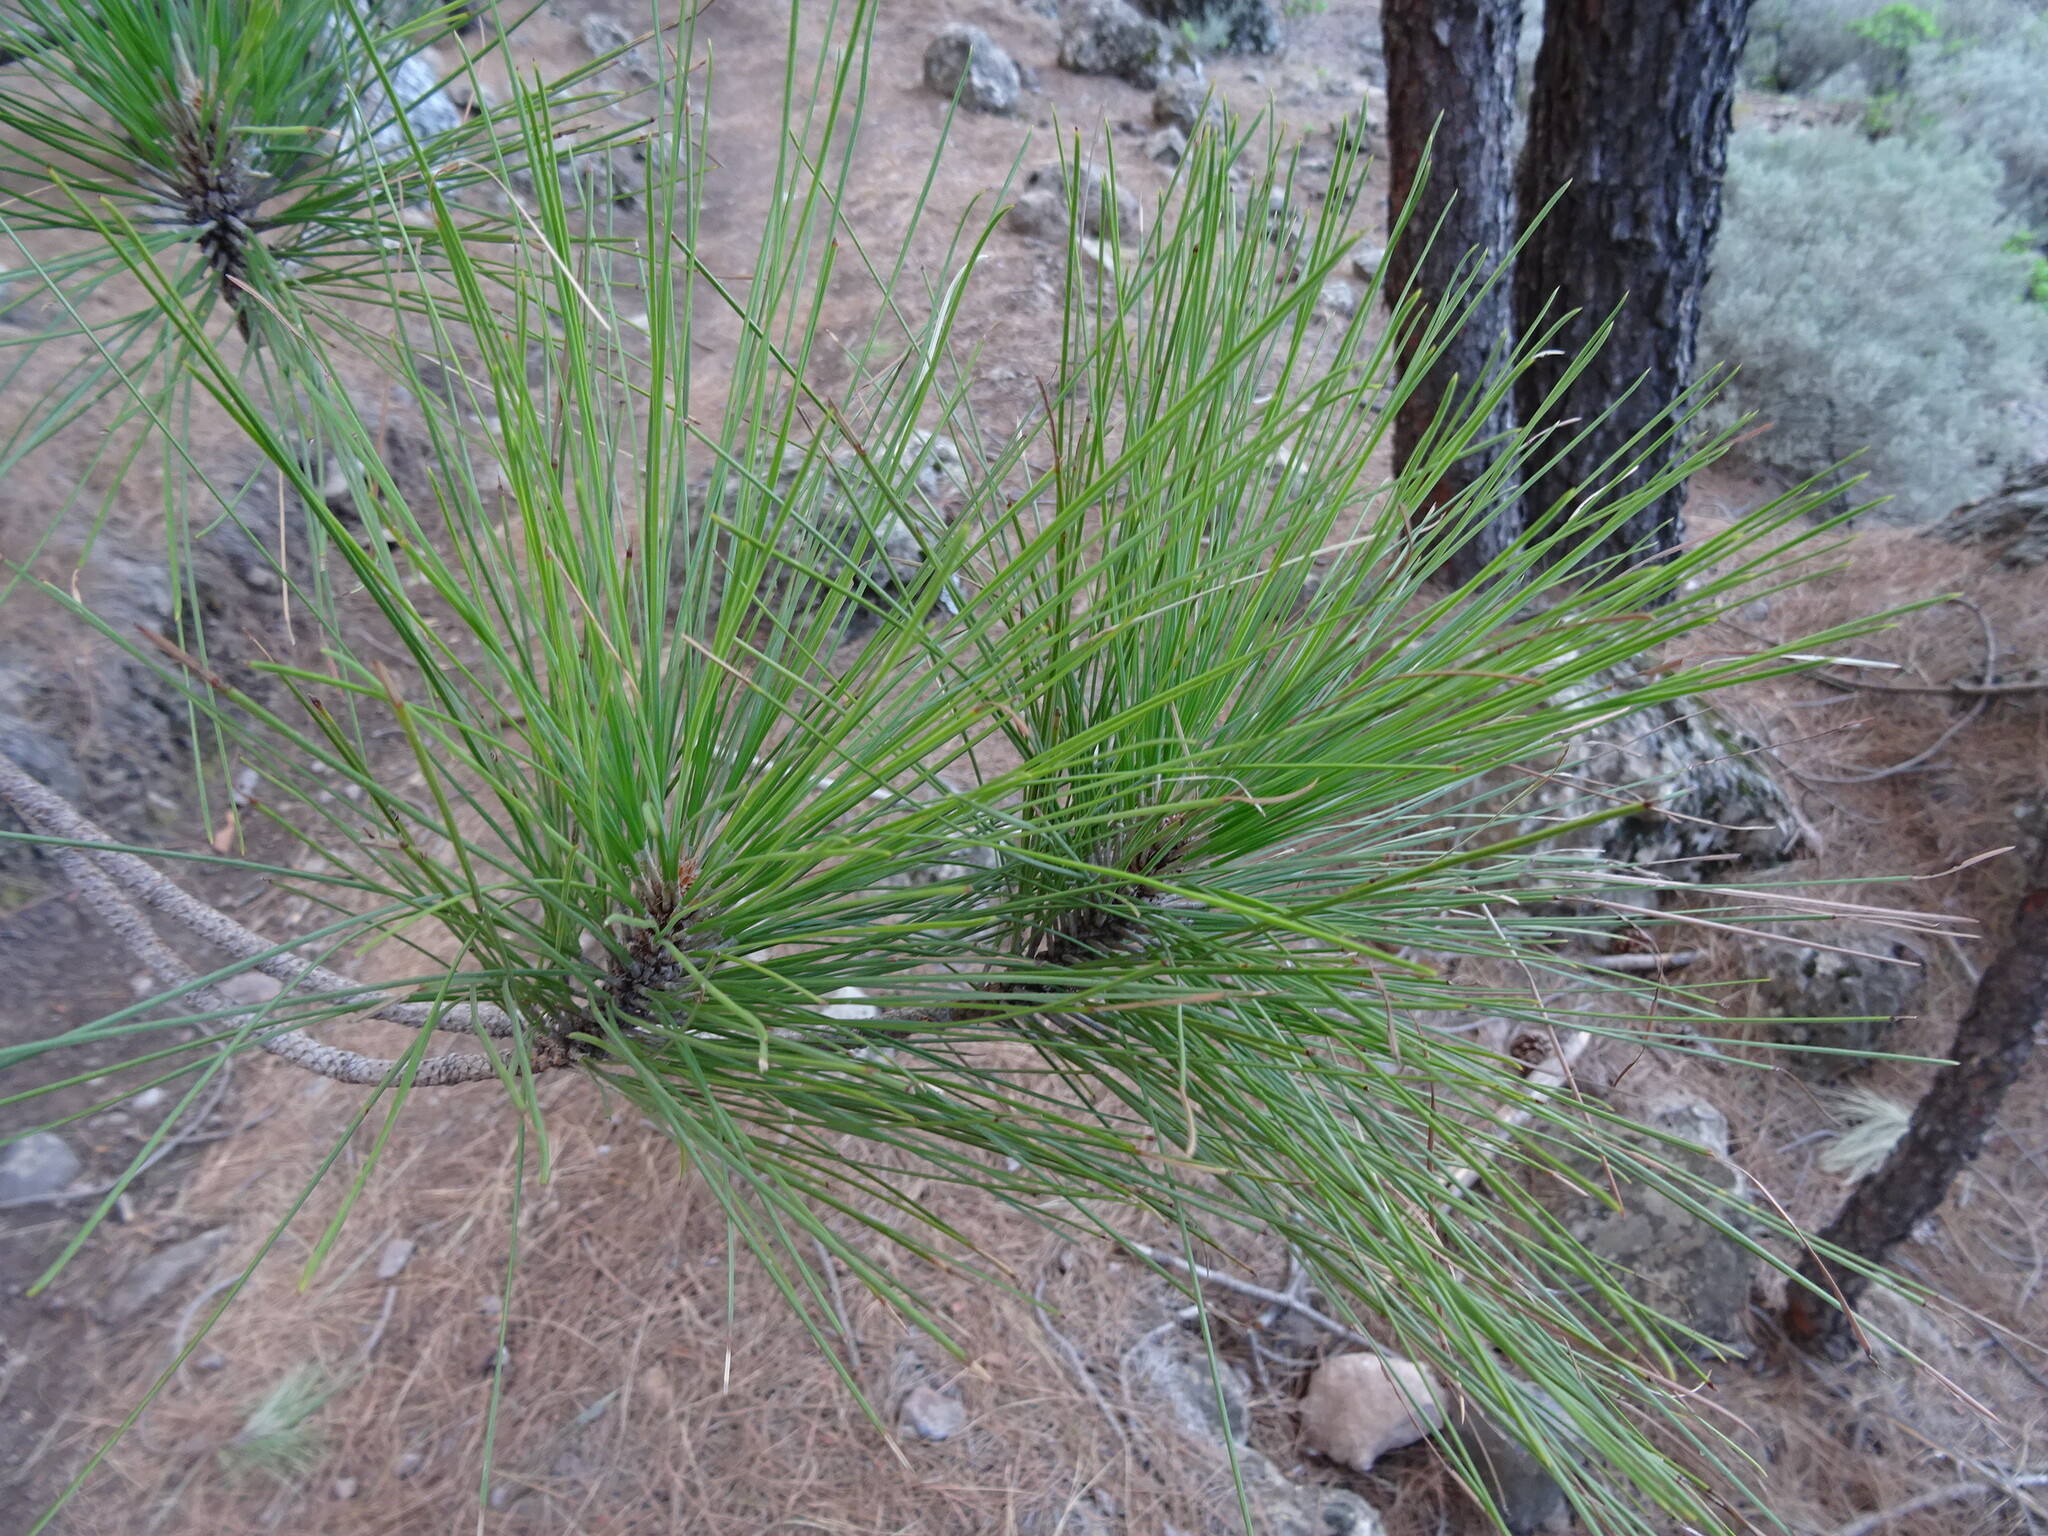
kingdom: Plantae
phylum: Tracheophyta
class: Pinopsida
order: Pinales
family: Pinaceae
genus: Pinus
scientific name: Pinus canariensis
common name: Canary islands pine
